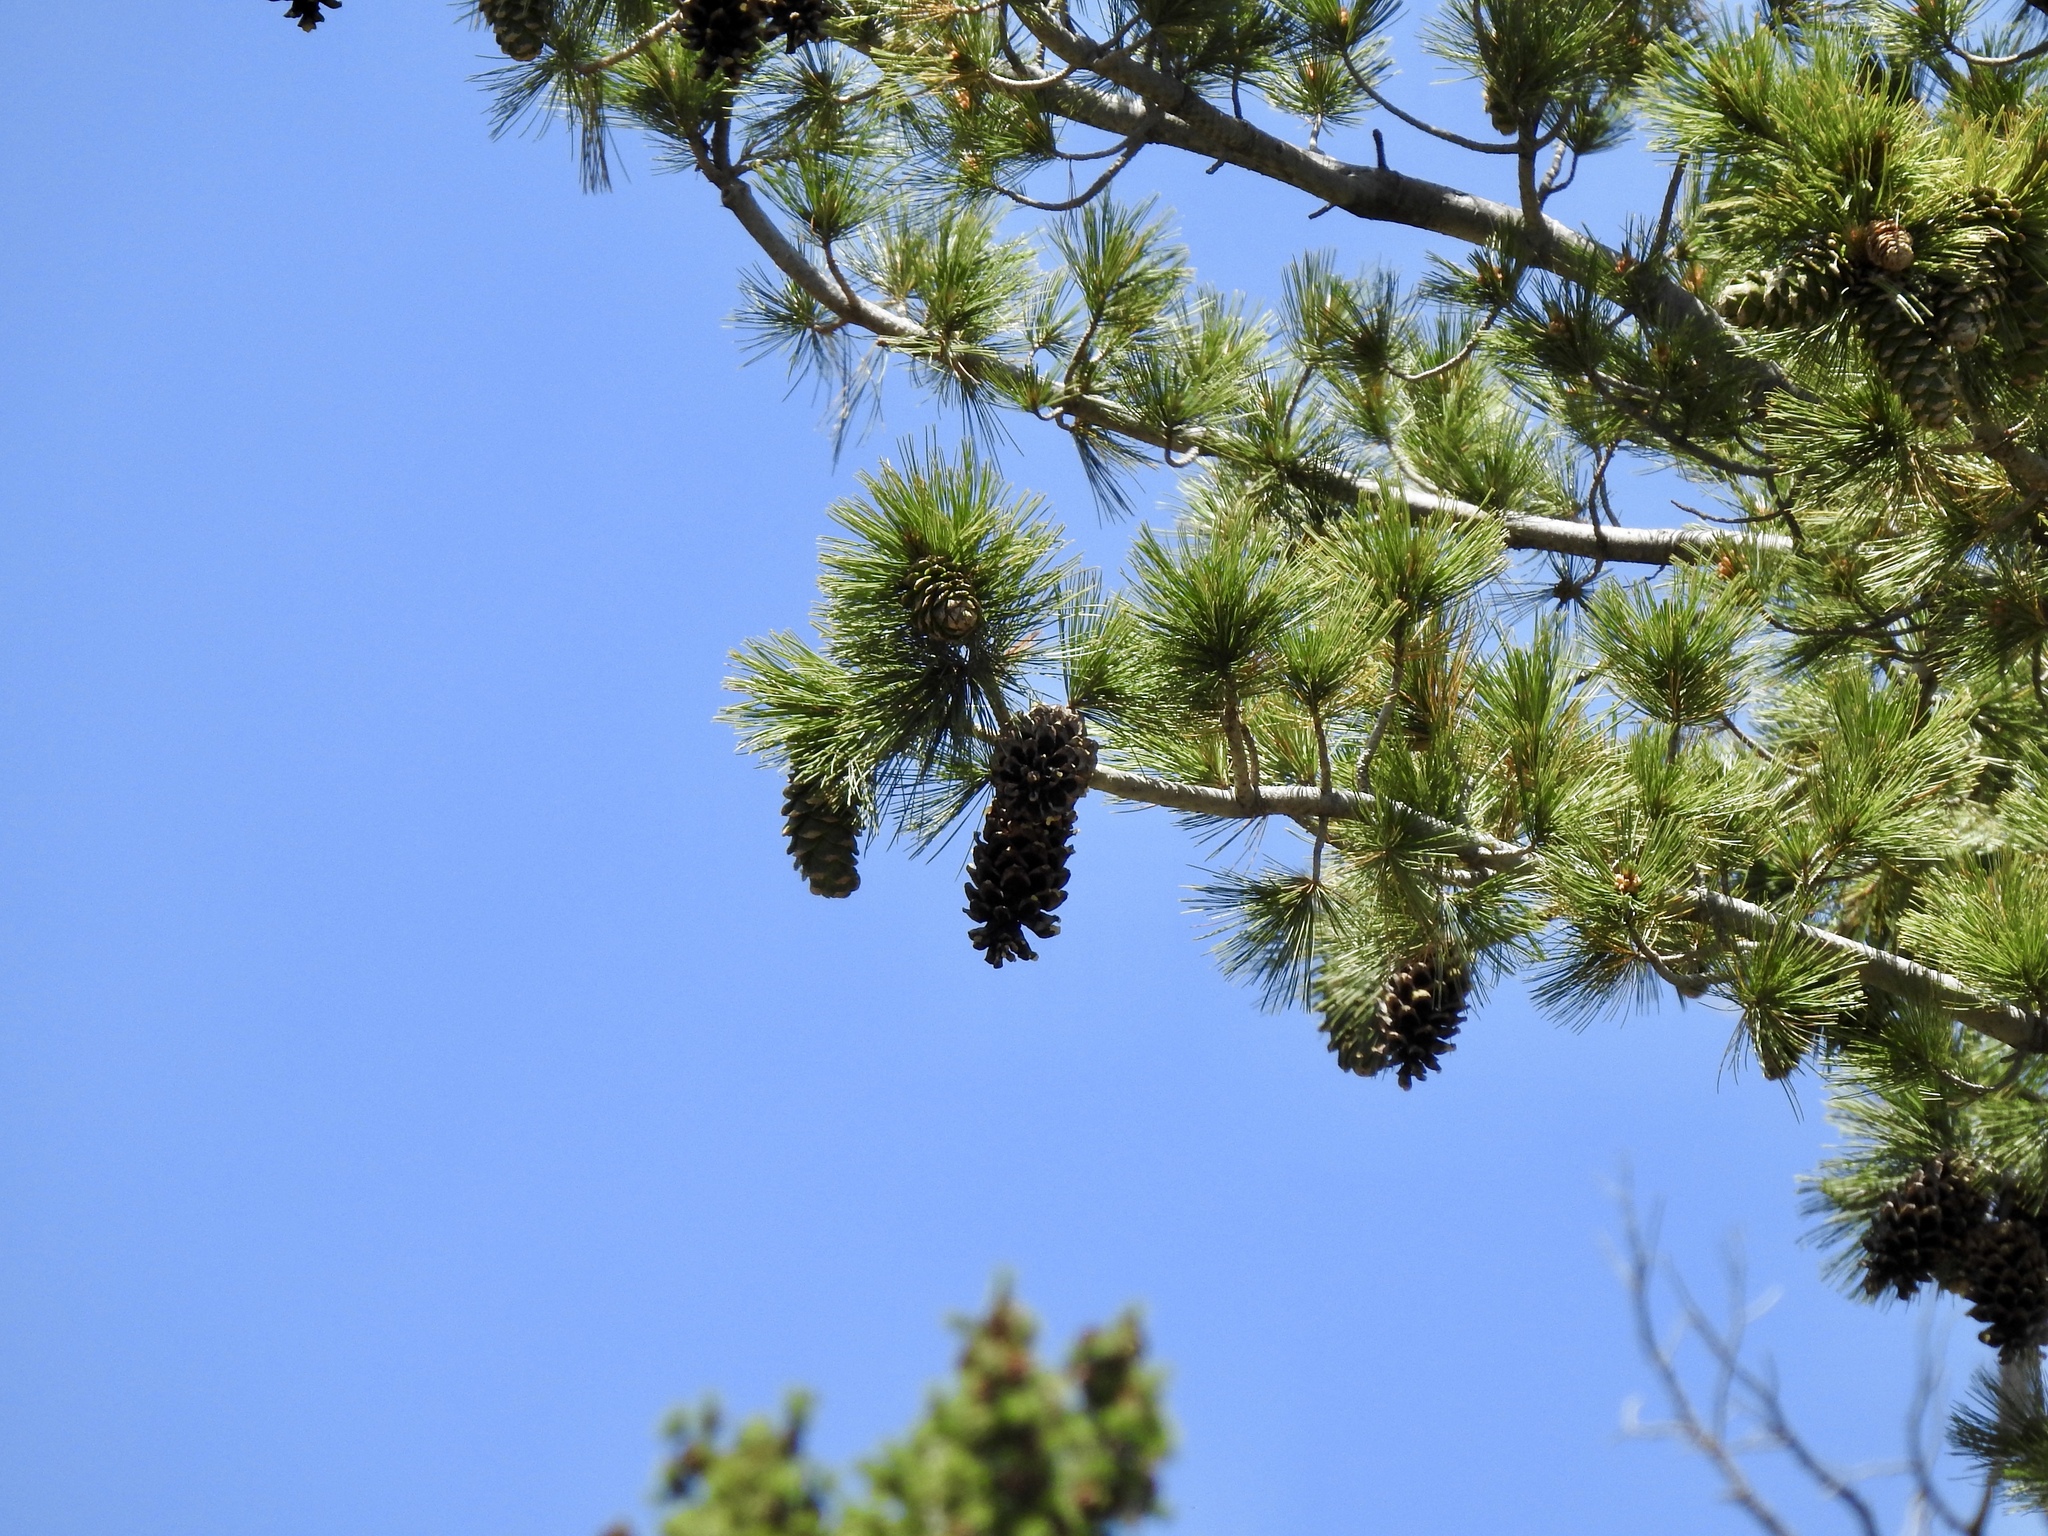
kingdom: Plantae
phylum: Tracheophyta
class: Pinopsida
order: Pinales
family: Pinaceae
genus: Pinus
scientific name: Pinus strobiformis
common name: Southwestern white pine
